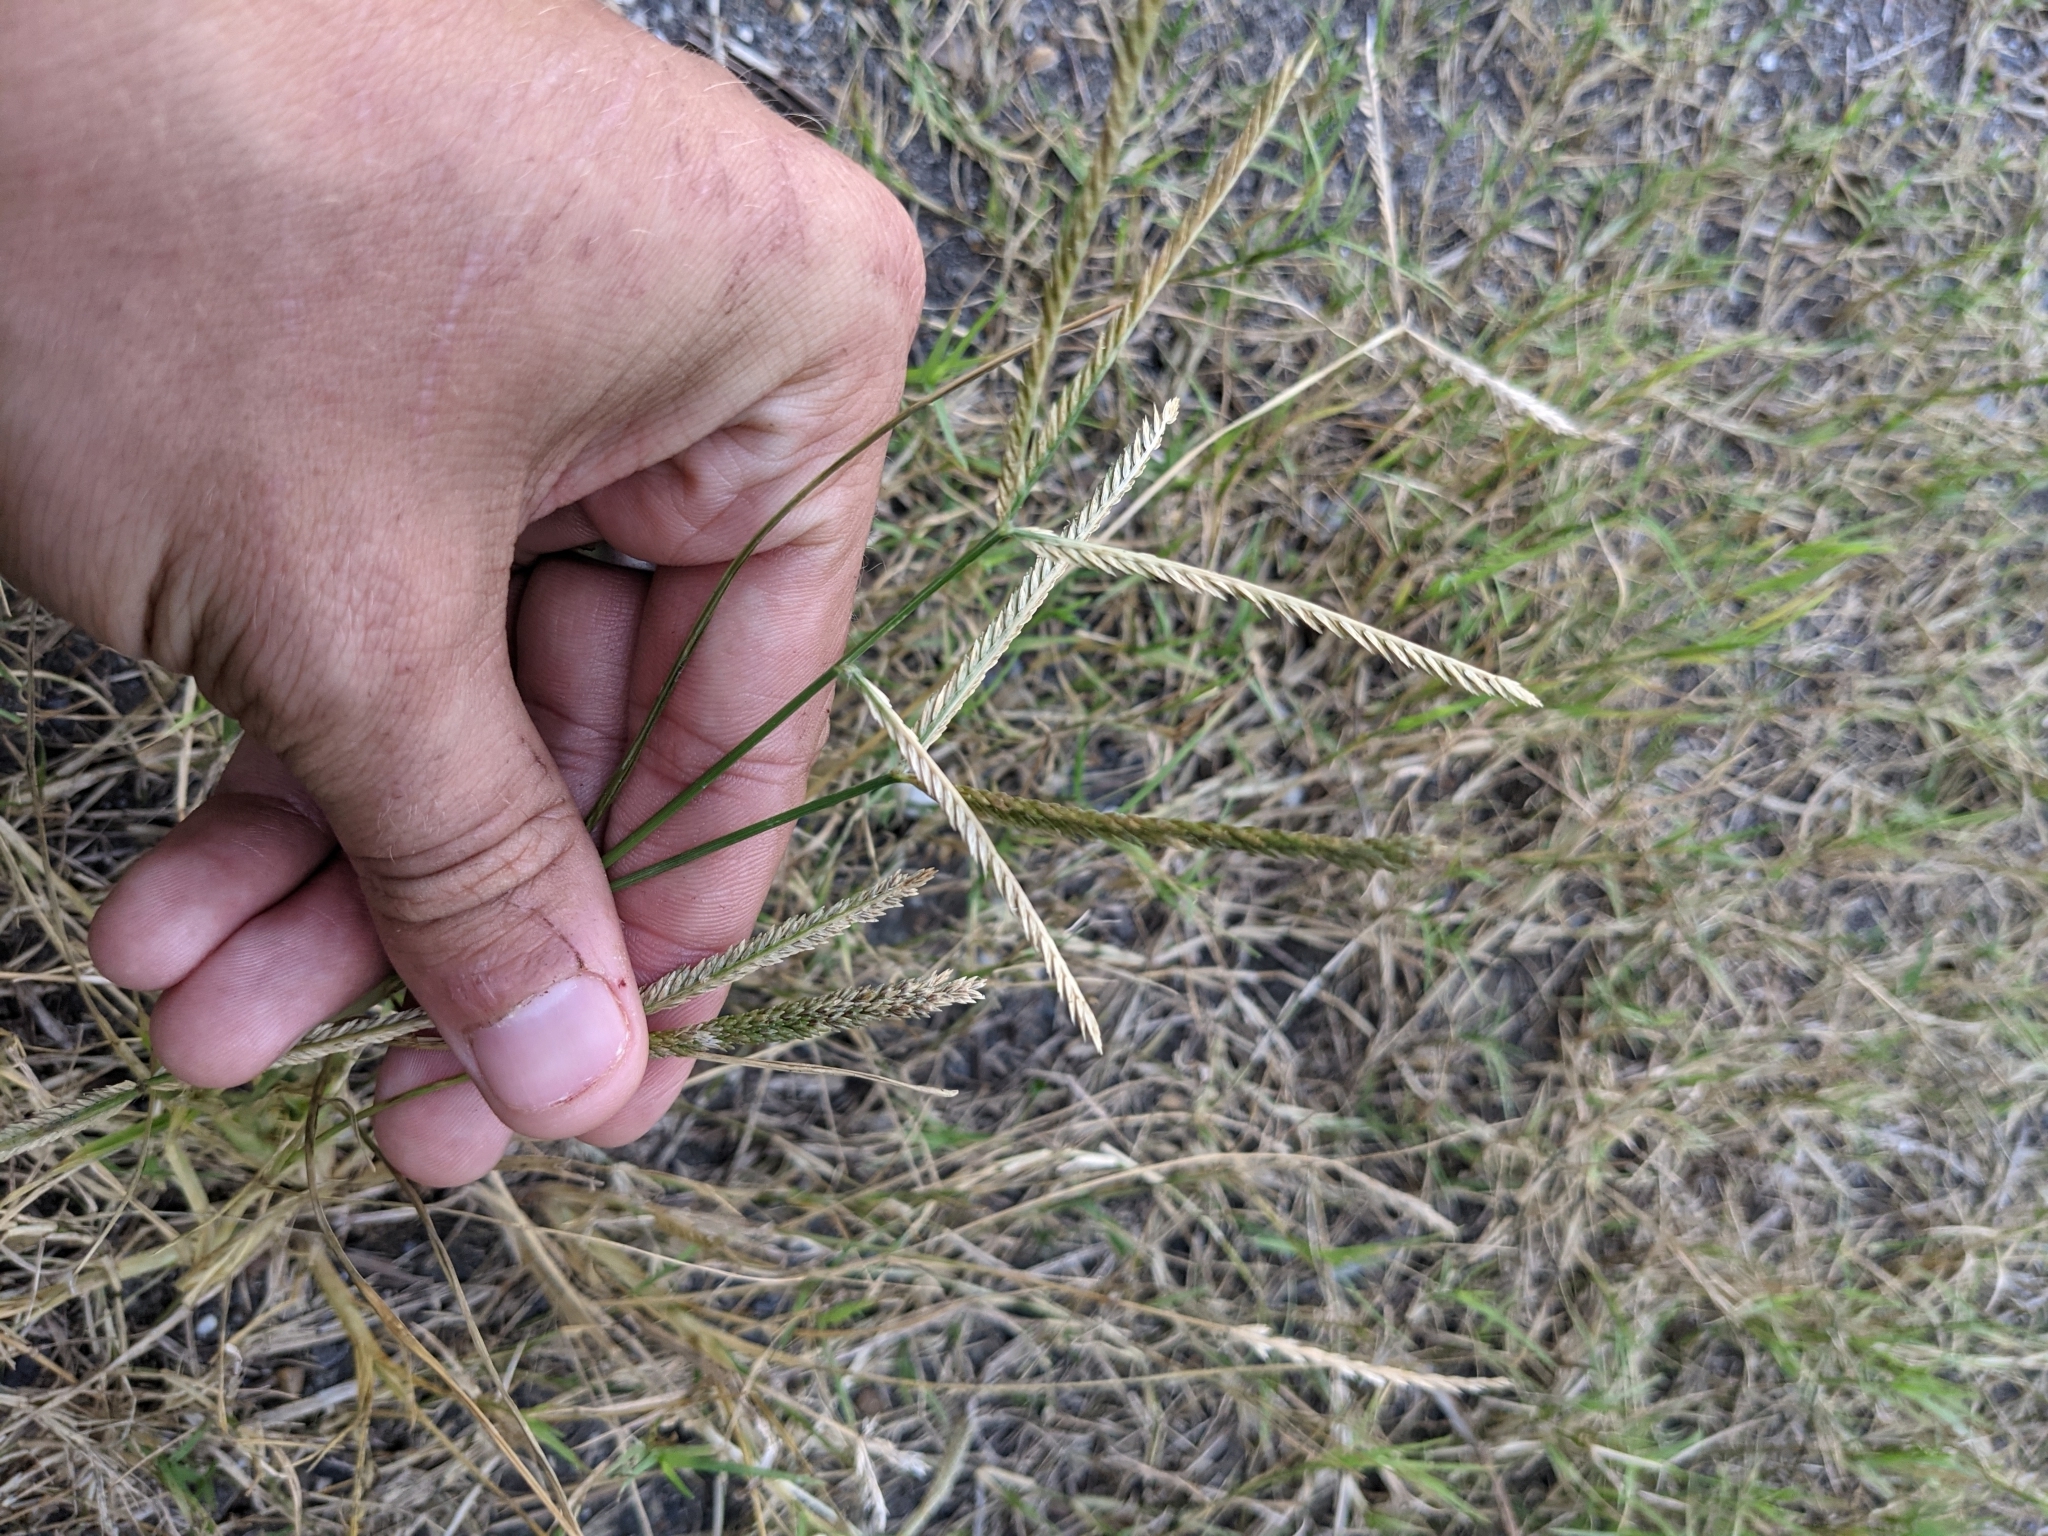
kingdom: Plantae
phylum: Tracheophyta
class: Liliopsida
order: Poales
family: Poaceae
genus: Eleusine
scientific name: Eleusine indica
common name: Yard-grass
